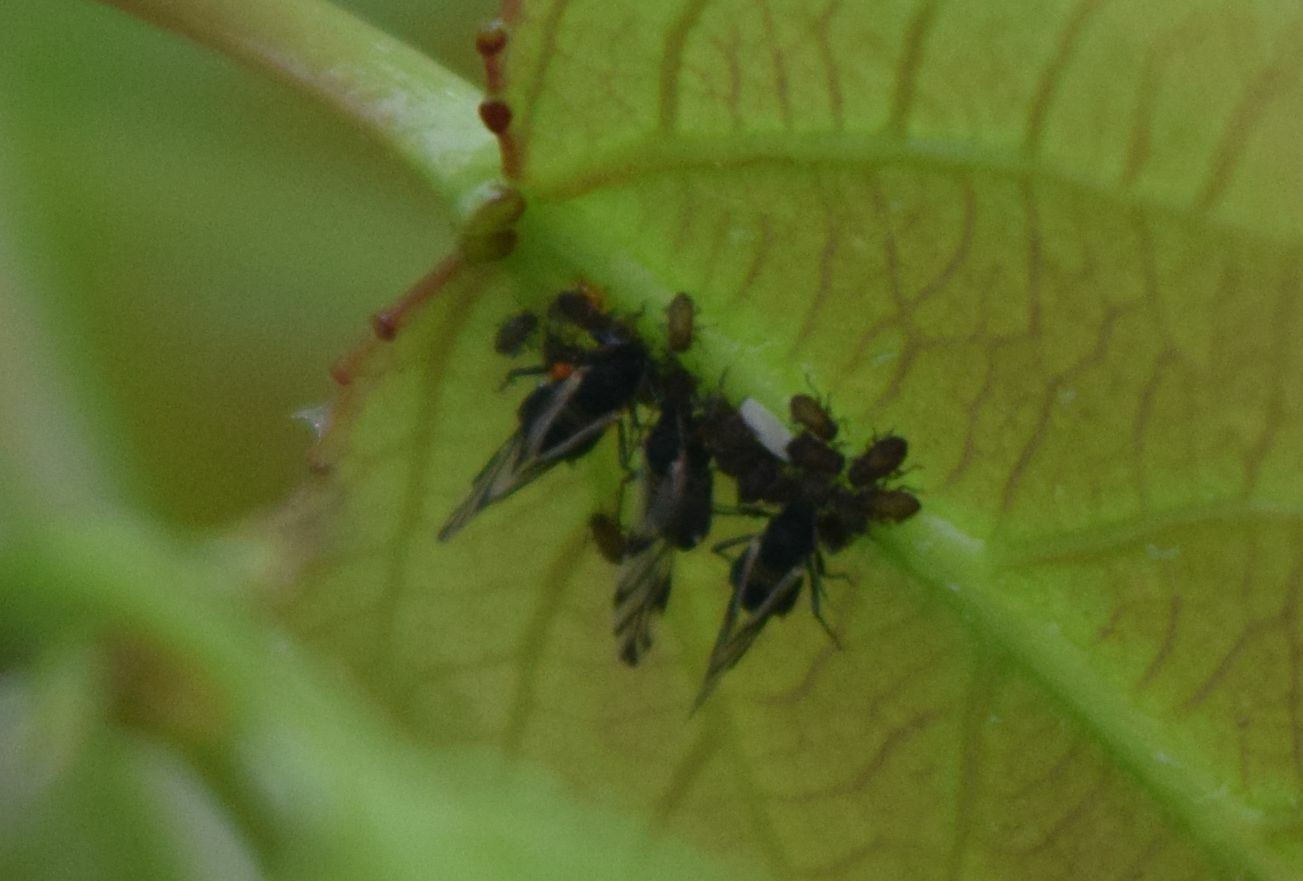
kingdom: Animalia
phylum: Arthropoda
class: Insecta
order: Hemiptera
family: Aphididae
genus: Chaitophorus
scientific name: Chaitophorus populicola
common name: Smokywinged poplar aphid
